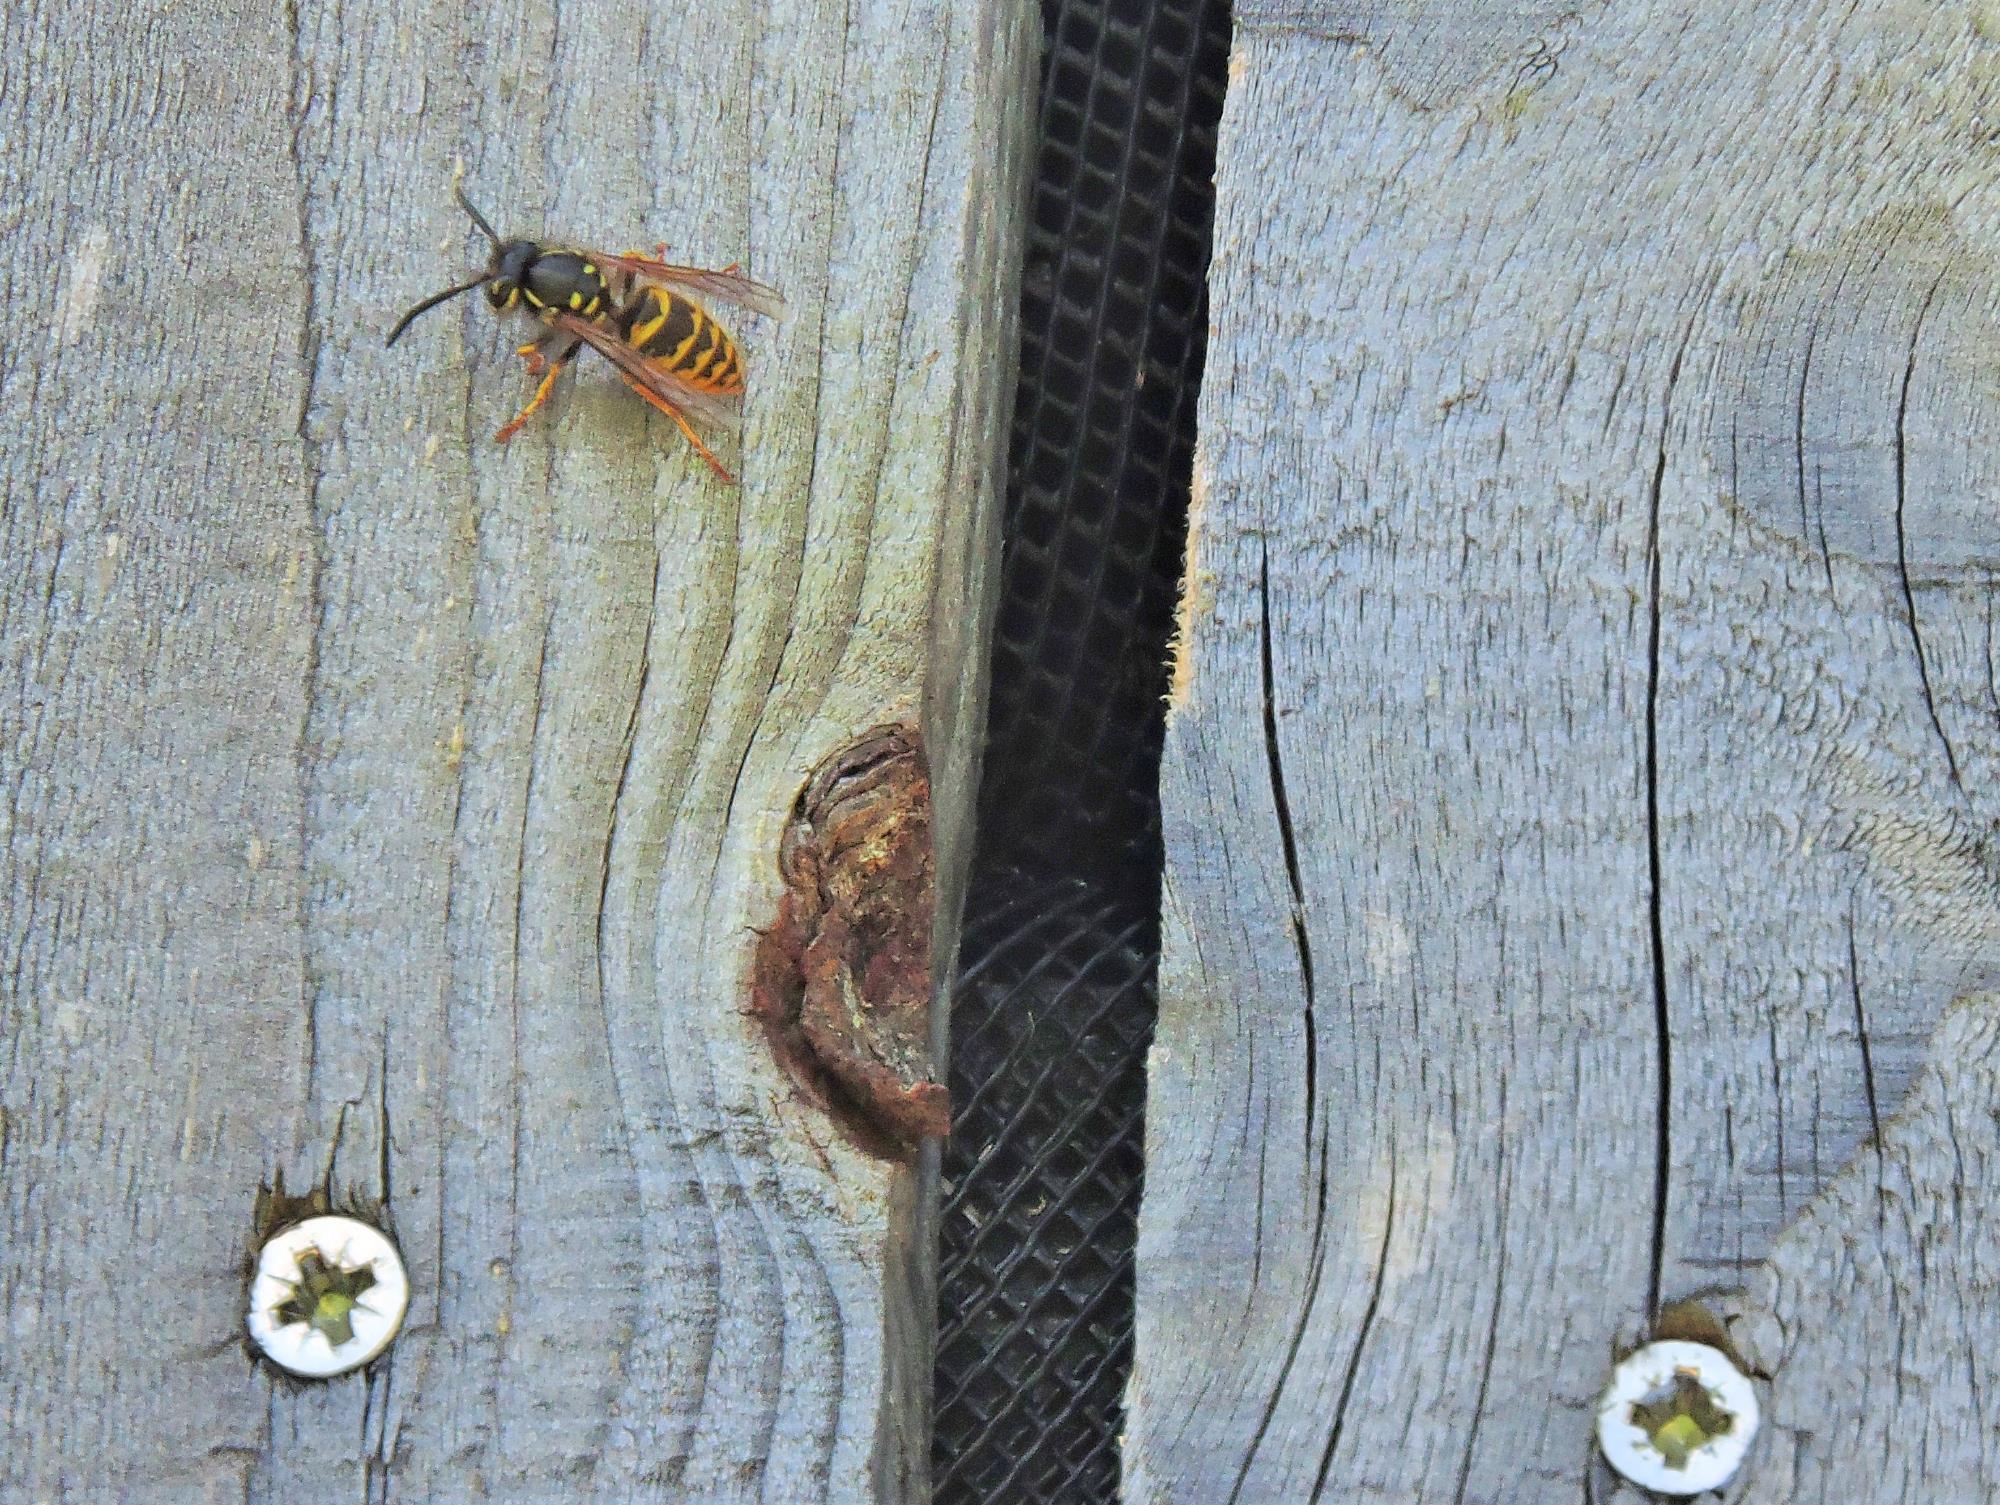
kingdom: Animalia
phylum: Arthropoda
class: Insecta
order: Hymenoptera
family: Vespidae
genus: Vespula
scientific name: Vespula vulgaris
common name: Common wasp
